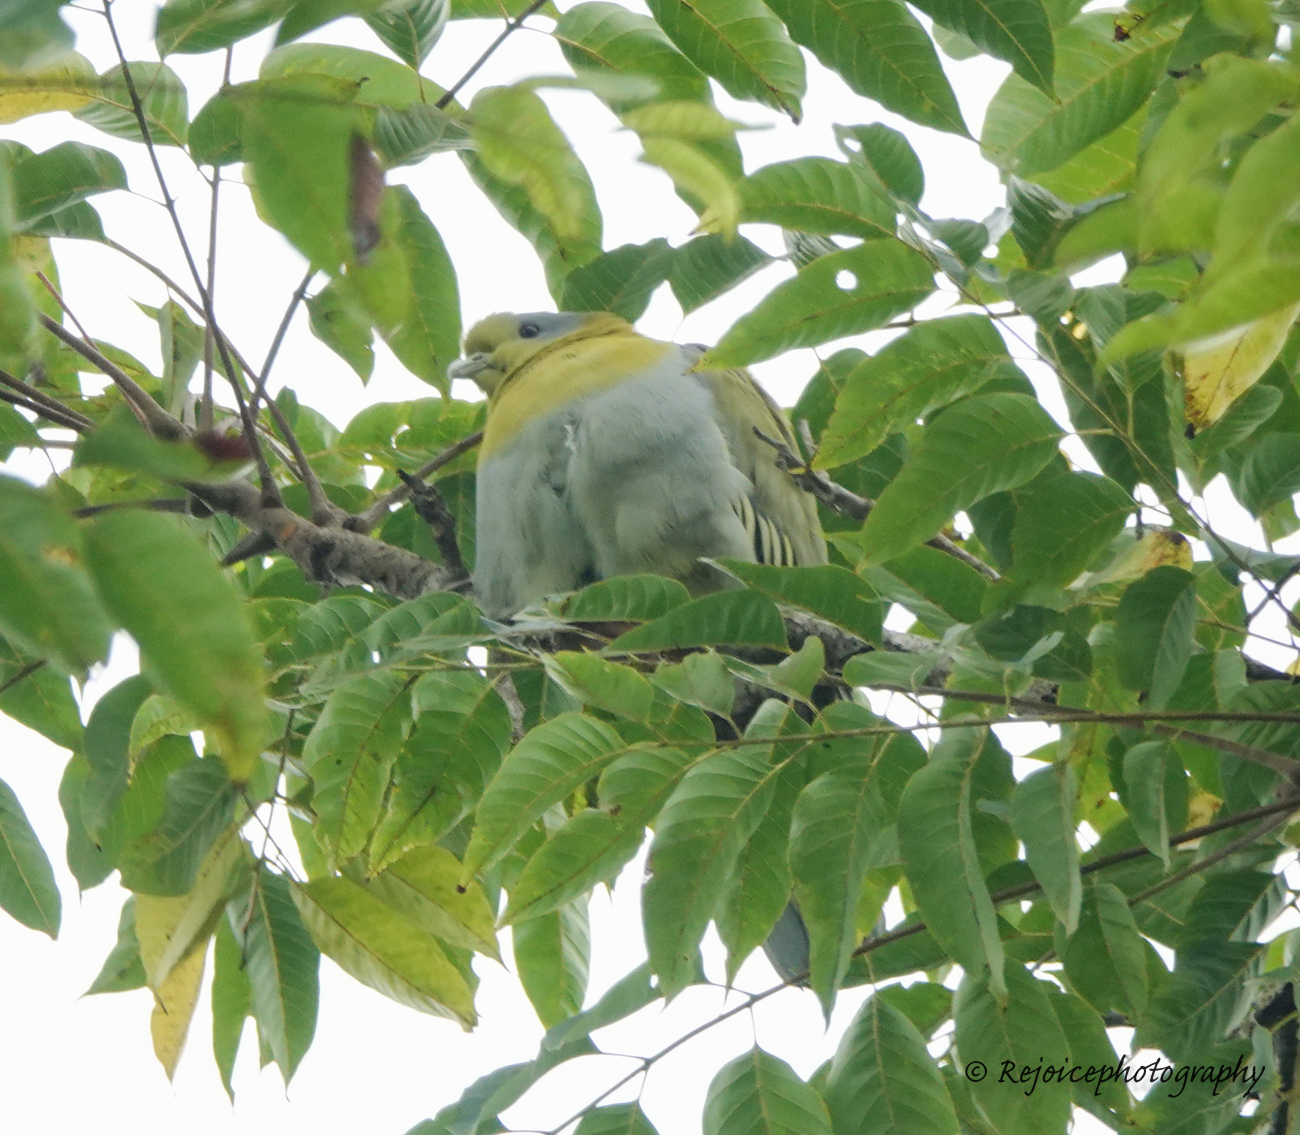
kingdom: Animalia
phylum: Chordata
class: Aves
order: Columbiformes
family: Columbidae
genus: Treron
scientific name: Treron phoenicopterus
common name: Yellow-footed green pigeon
